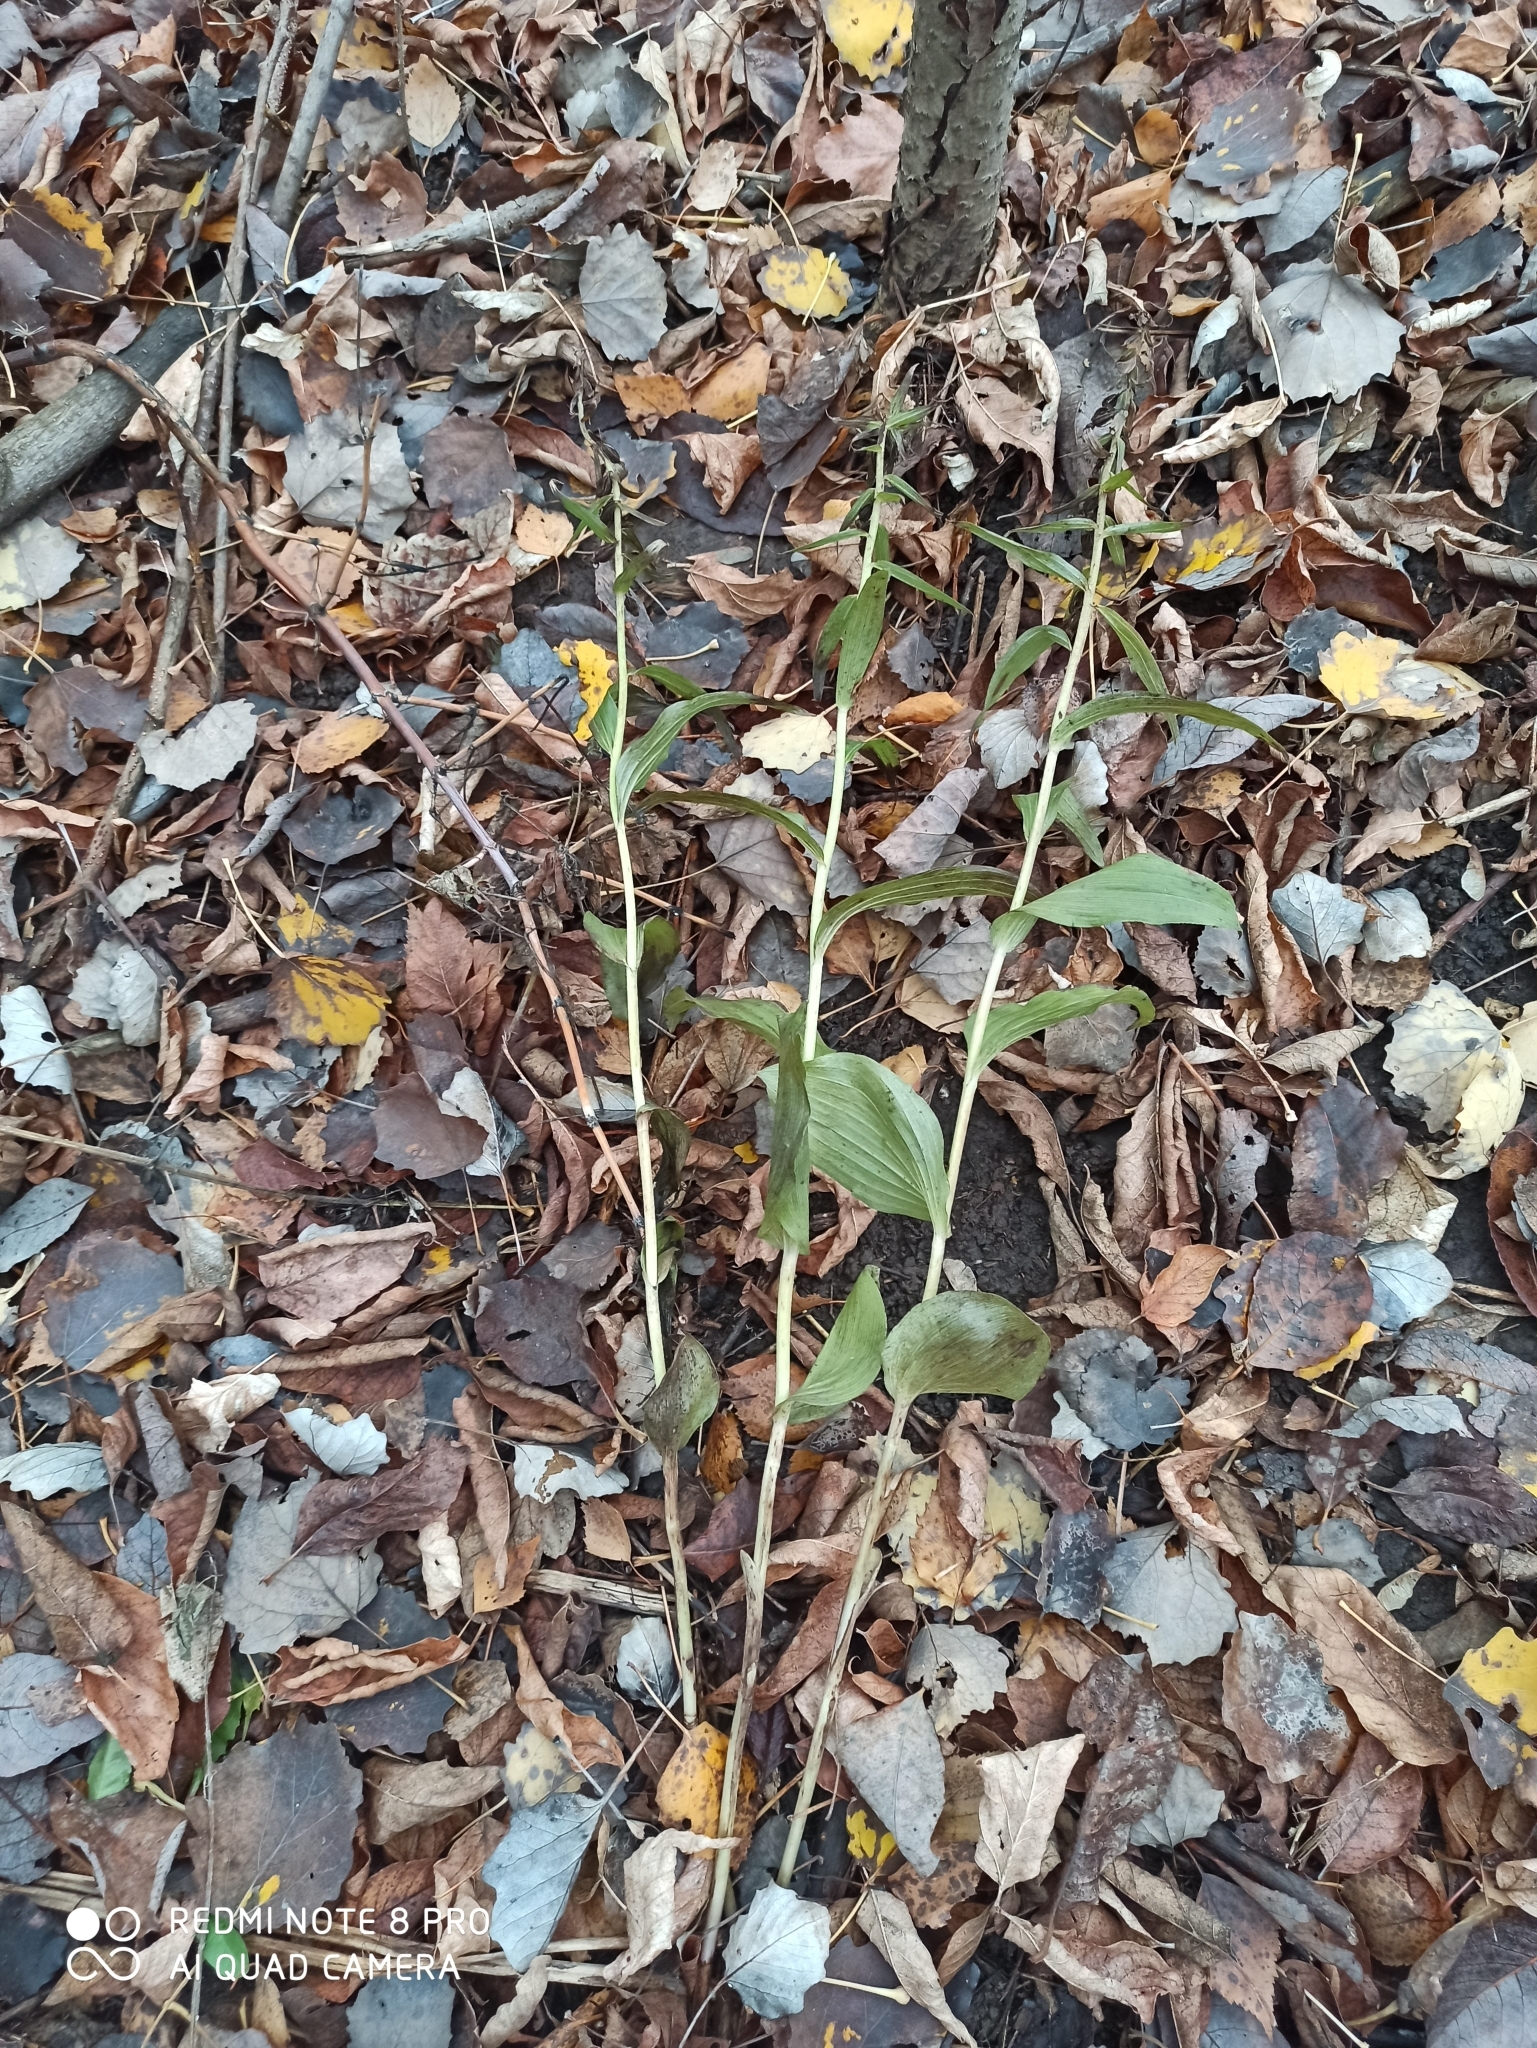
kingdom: Plantae
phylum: Tracheophyta
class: Liliopsida
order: Asparagales
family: Orchidaceae
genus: Epipactis
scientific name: Epipactis helleborine
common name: Broad-leaved helleborine
